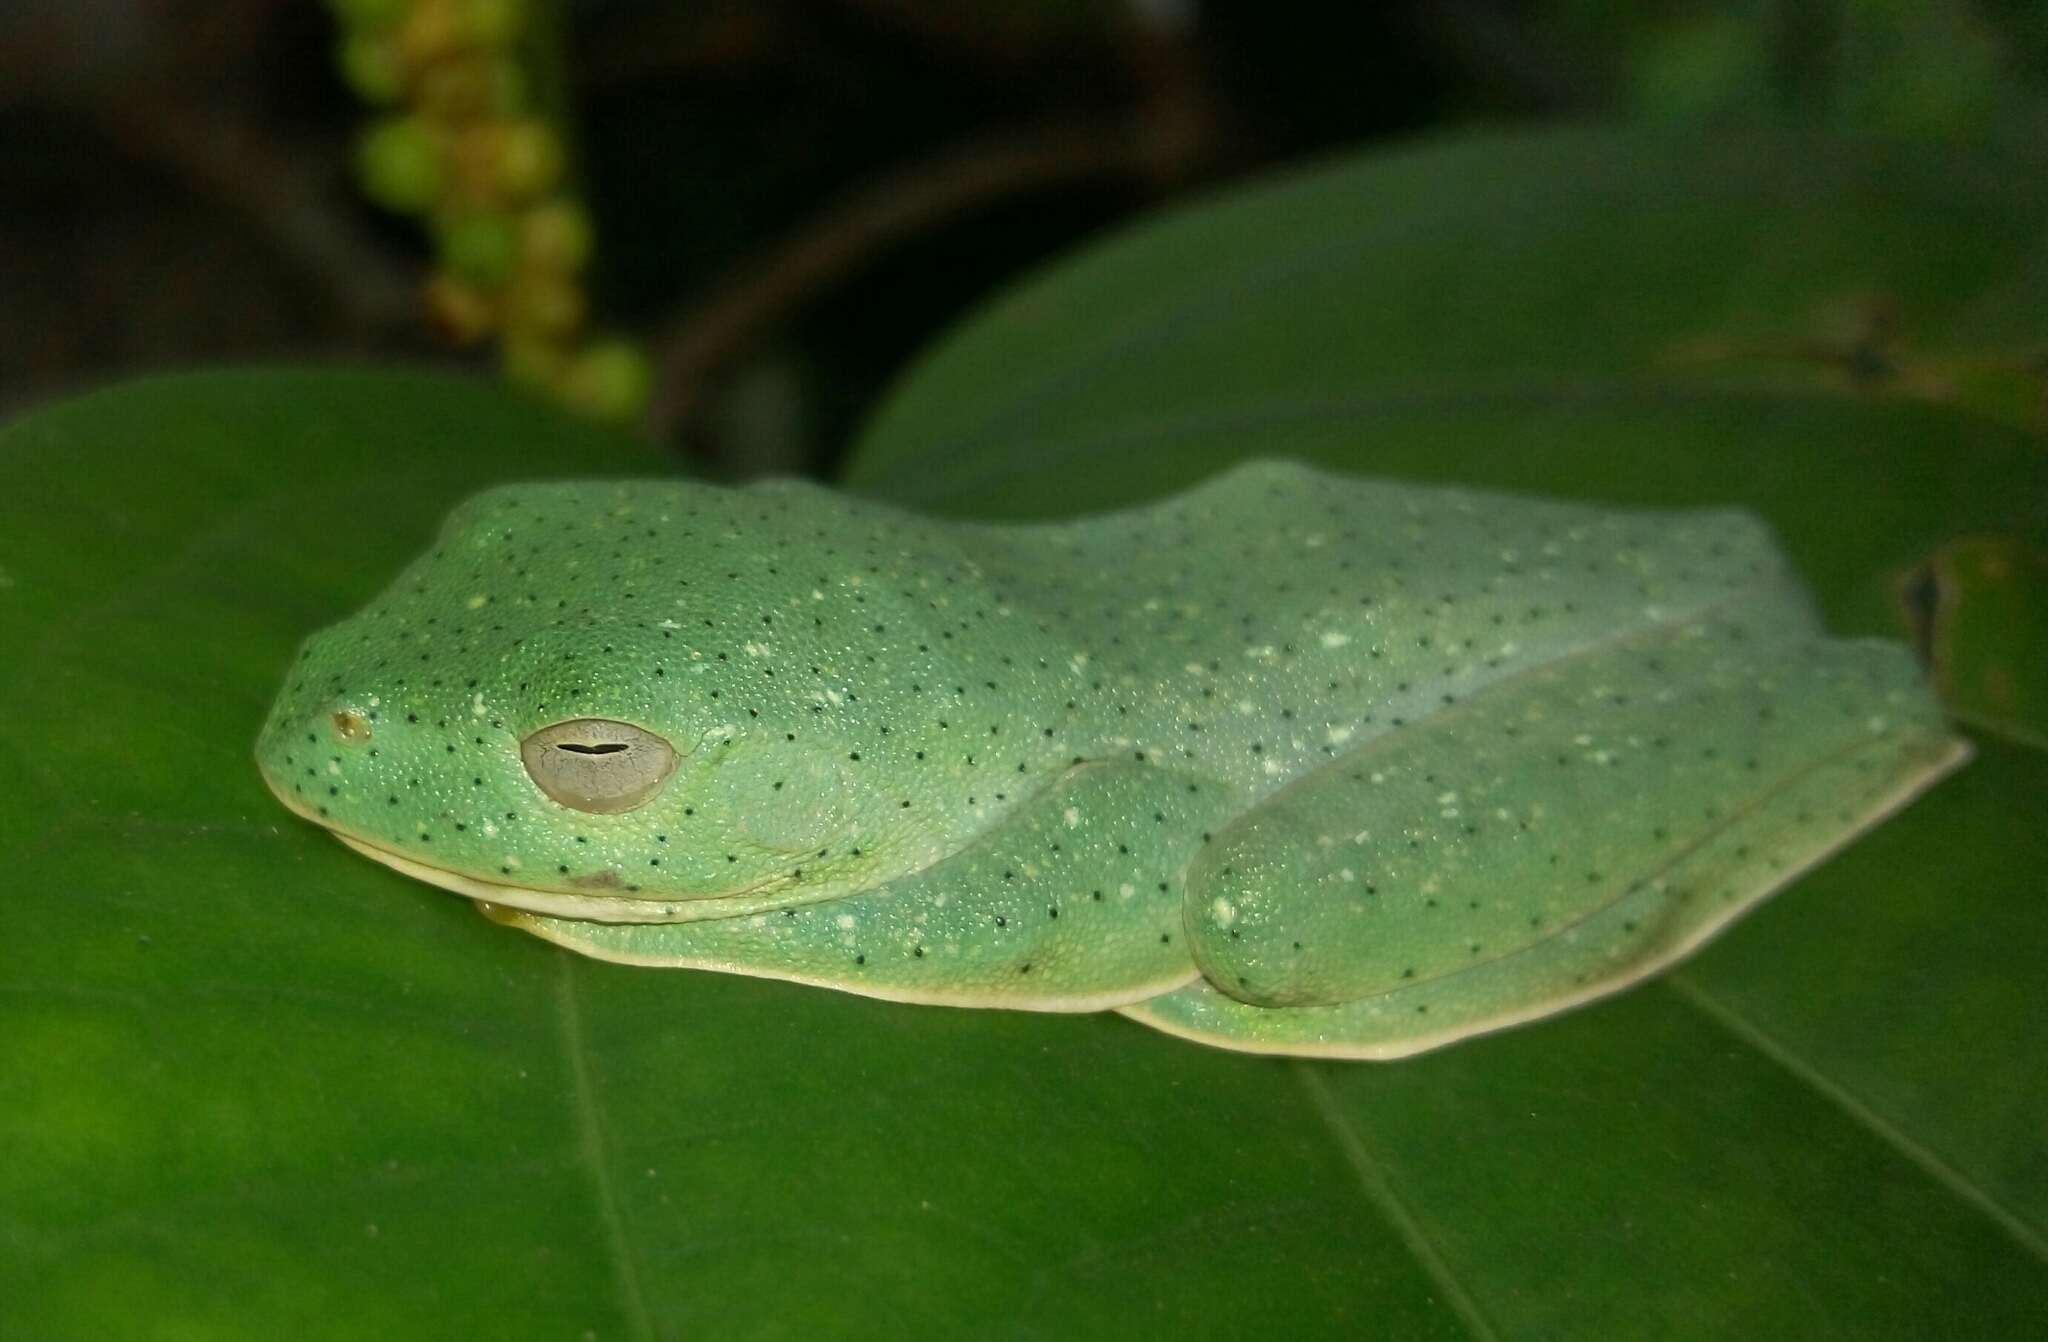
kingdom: Animalia
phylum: Chordata
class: Amphibia
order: Anura
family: Rhacophoridae
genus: Rhacophorus
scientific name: Rhacophorus malabaricus
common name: Malabar gliding frog
